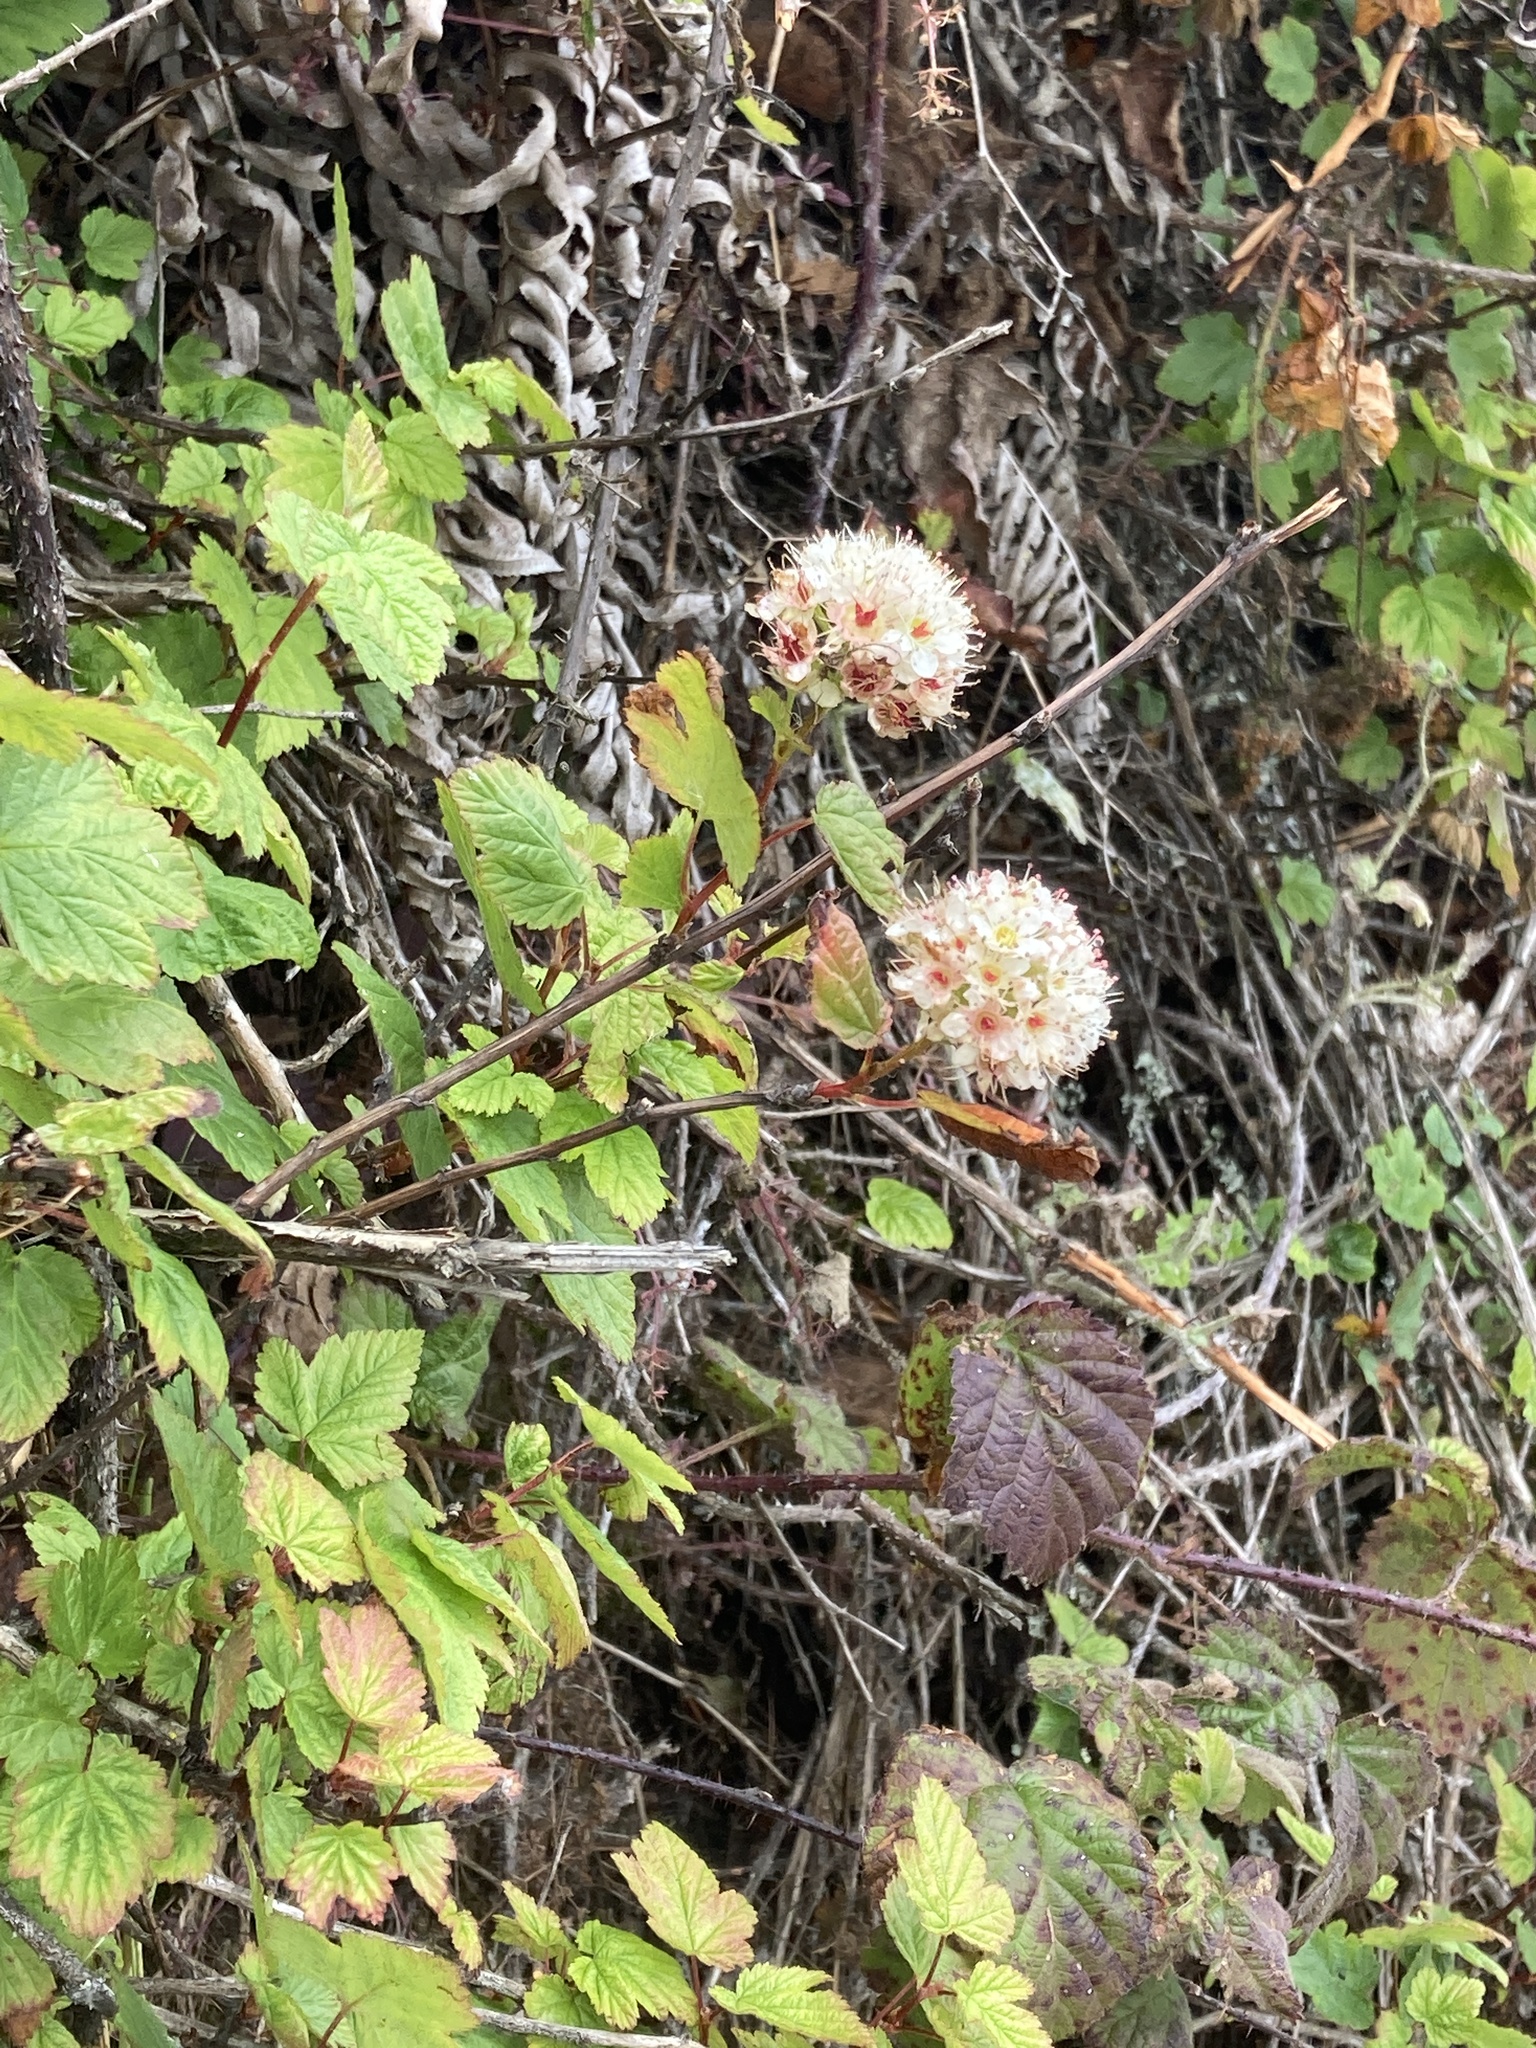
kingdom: Plantae
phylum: Tracheophyta
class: Magnoliopsida
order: Rosales
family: Rosaceae
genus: Physocarpus
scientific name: Physocarpus capitatus
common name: Pacific ninebark
